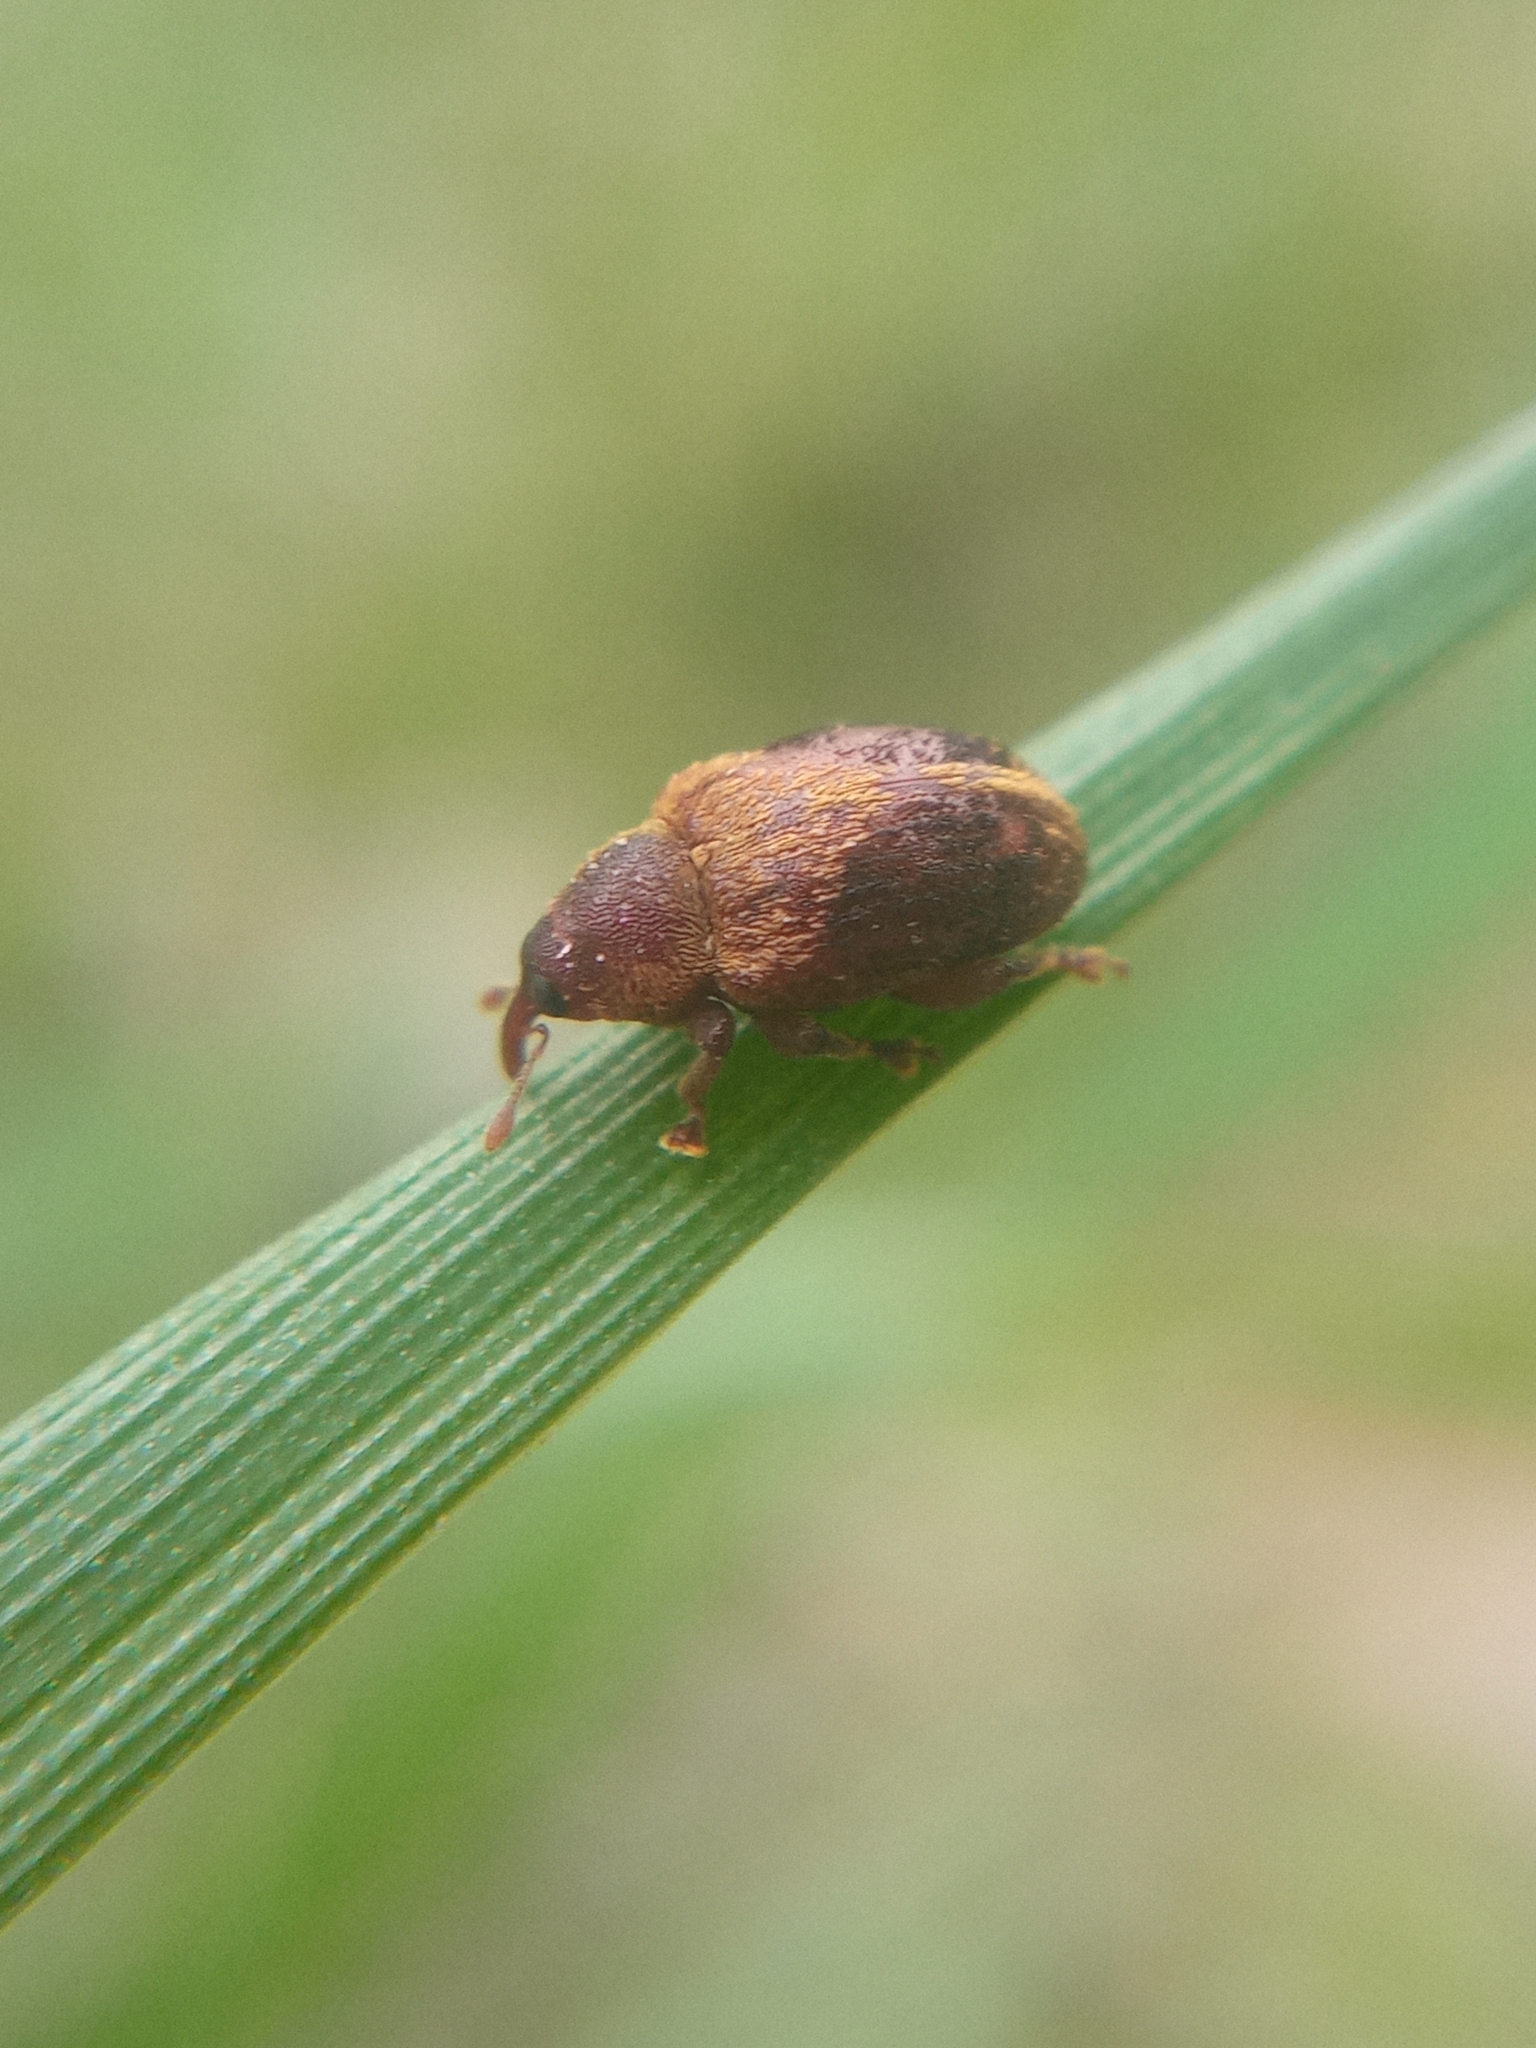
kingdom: Animalia
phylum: Arthropoda
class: Insecta
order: Coleoptera
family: Curculionidae
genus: Lignyodes
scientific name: Lignyodes enucleator
